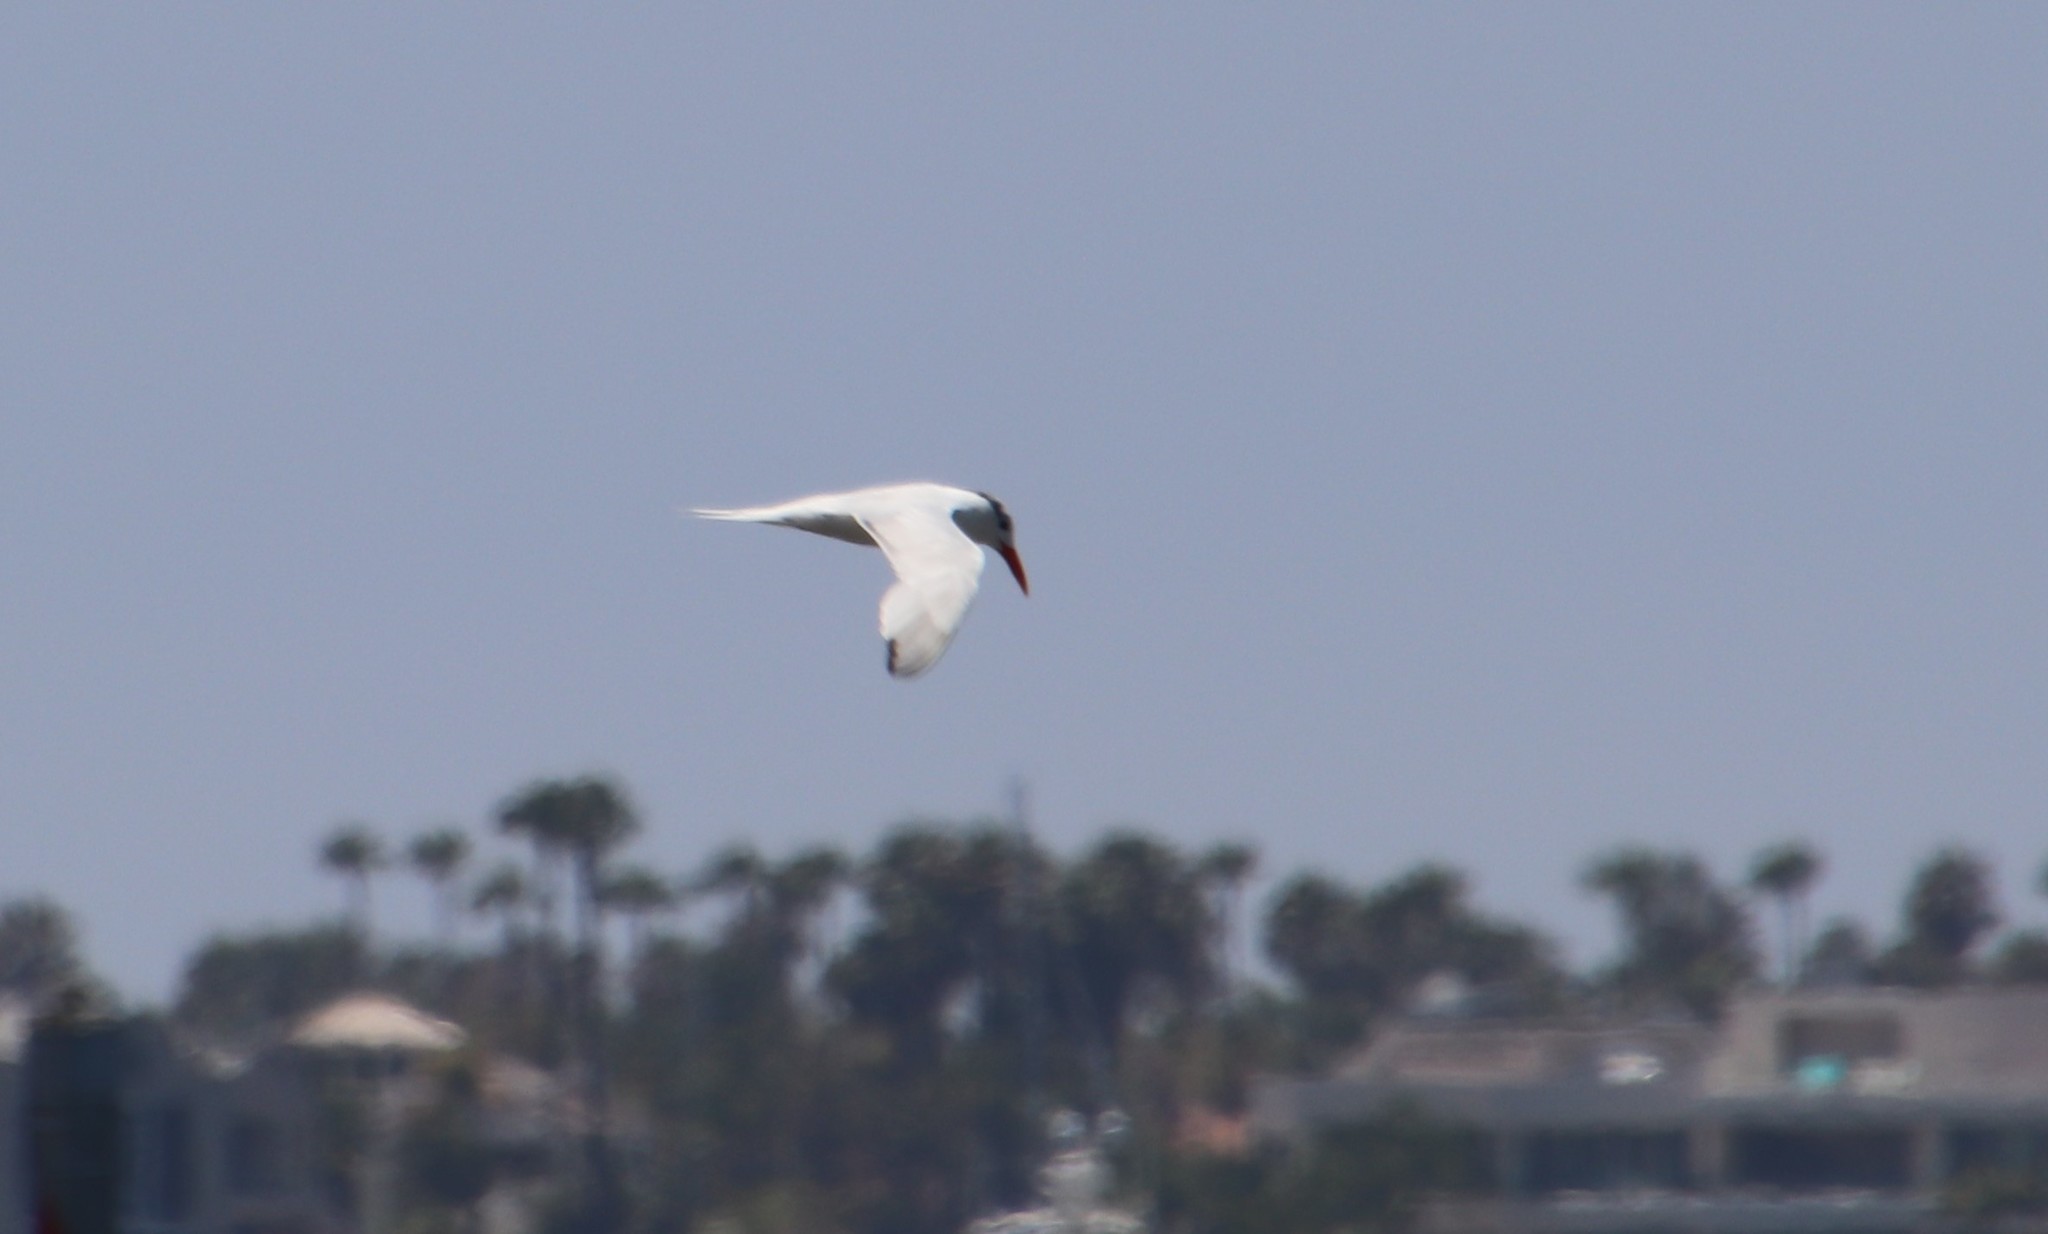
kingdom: Animalia
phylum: Chordata
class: Aves
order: Charadriiformes
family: Laridae
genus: Thalasseus
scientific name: Thalasseus maximus
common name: Royal tern
